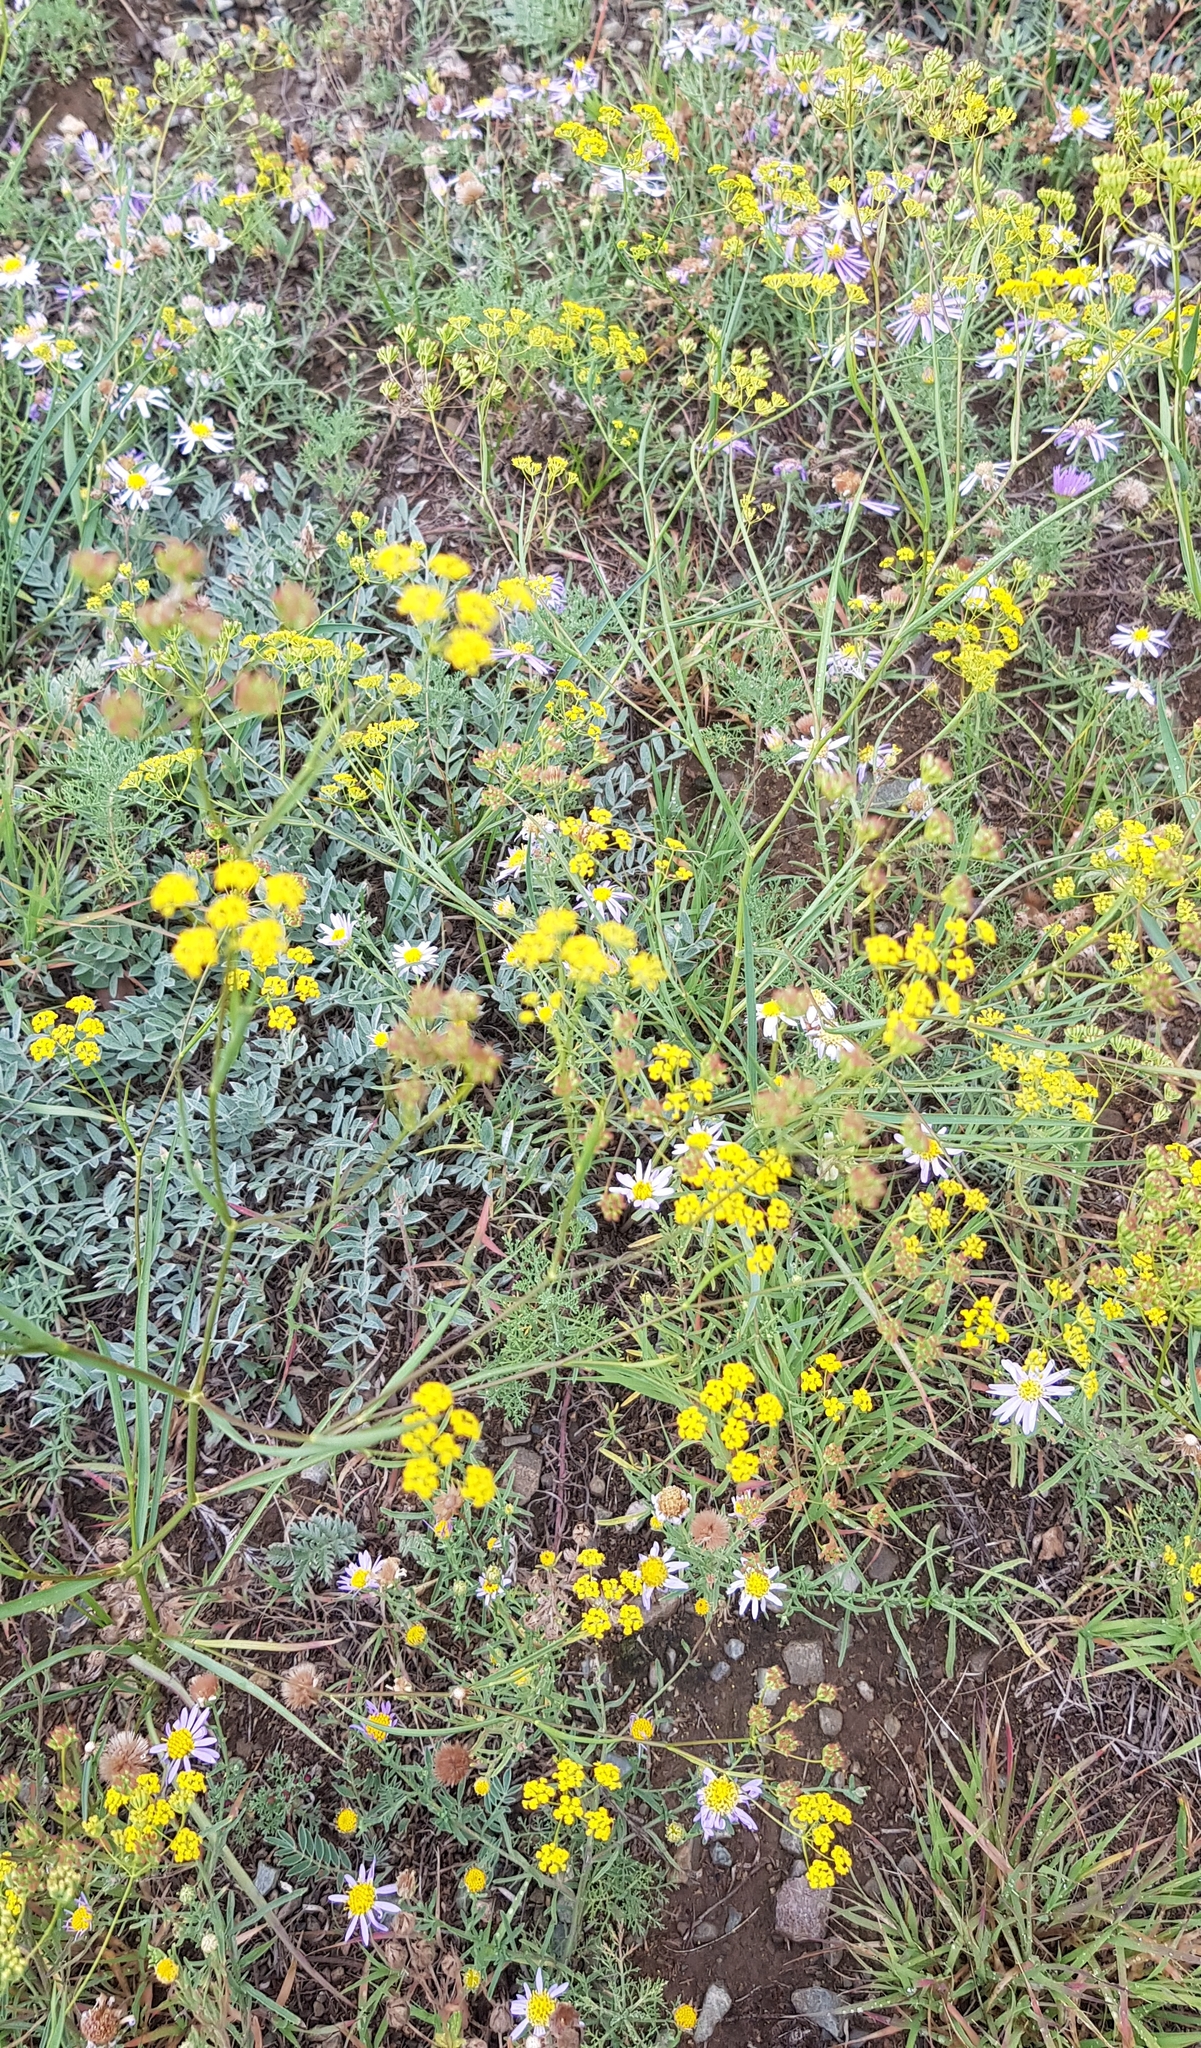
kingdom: Plantae
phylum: Tracheophyta
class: Magnoliopsida
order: Apiales
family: Apiaceae
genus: Bupleurum
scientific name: Bupleurum scorzonerifolium
